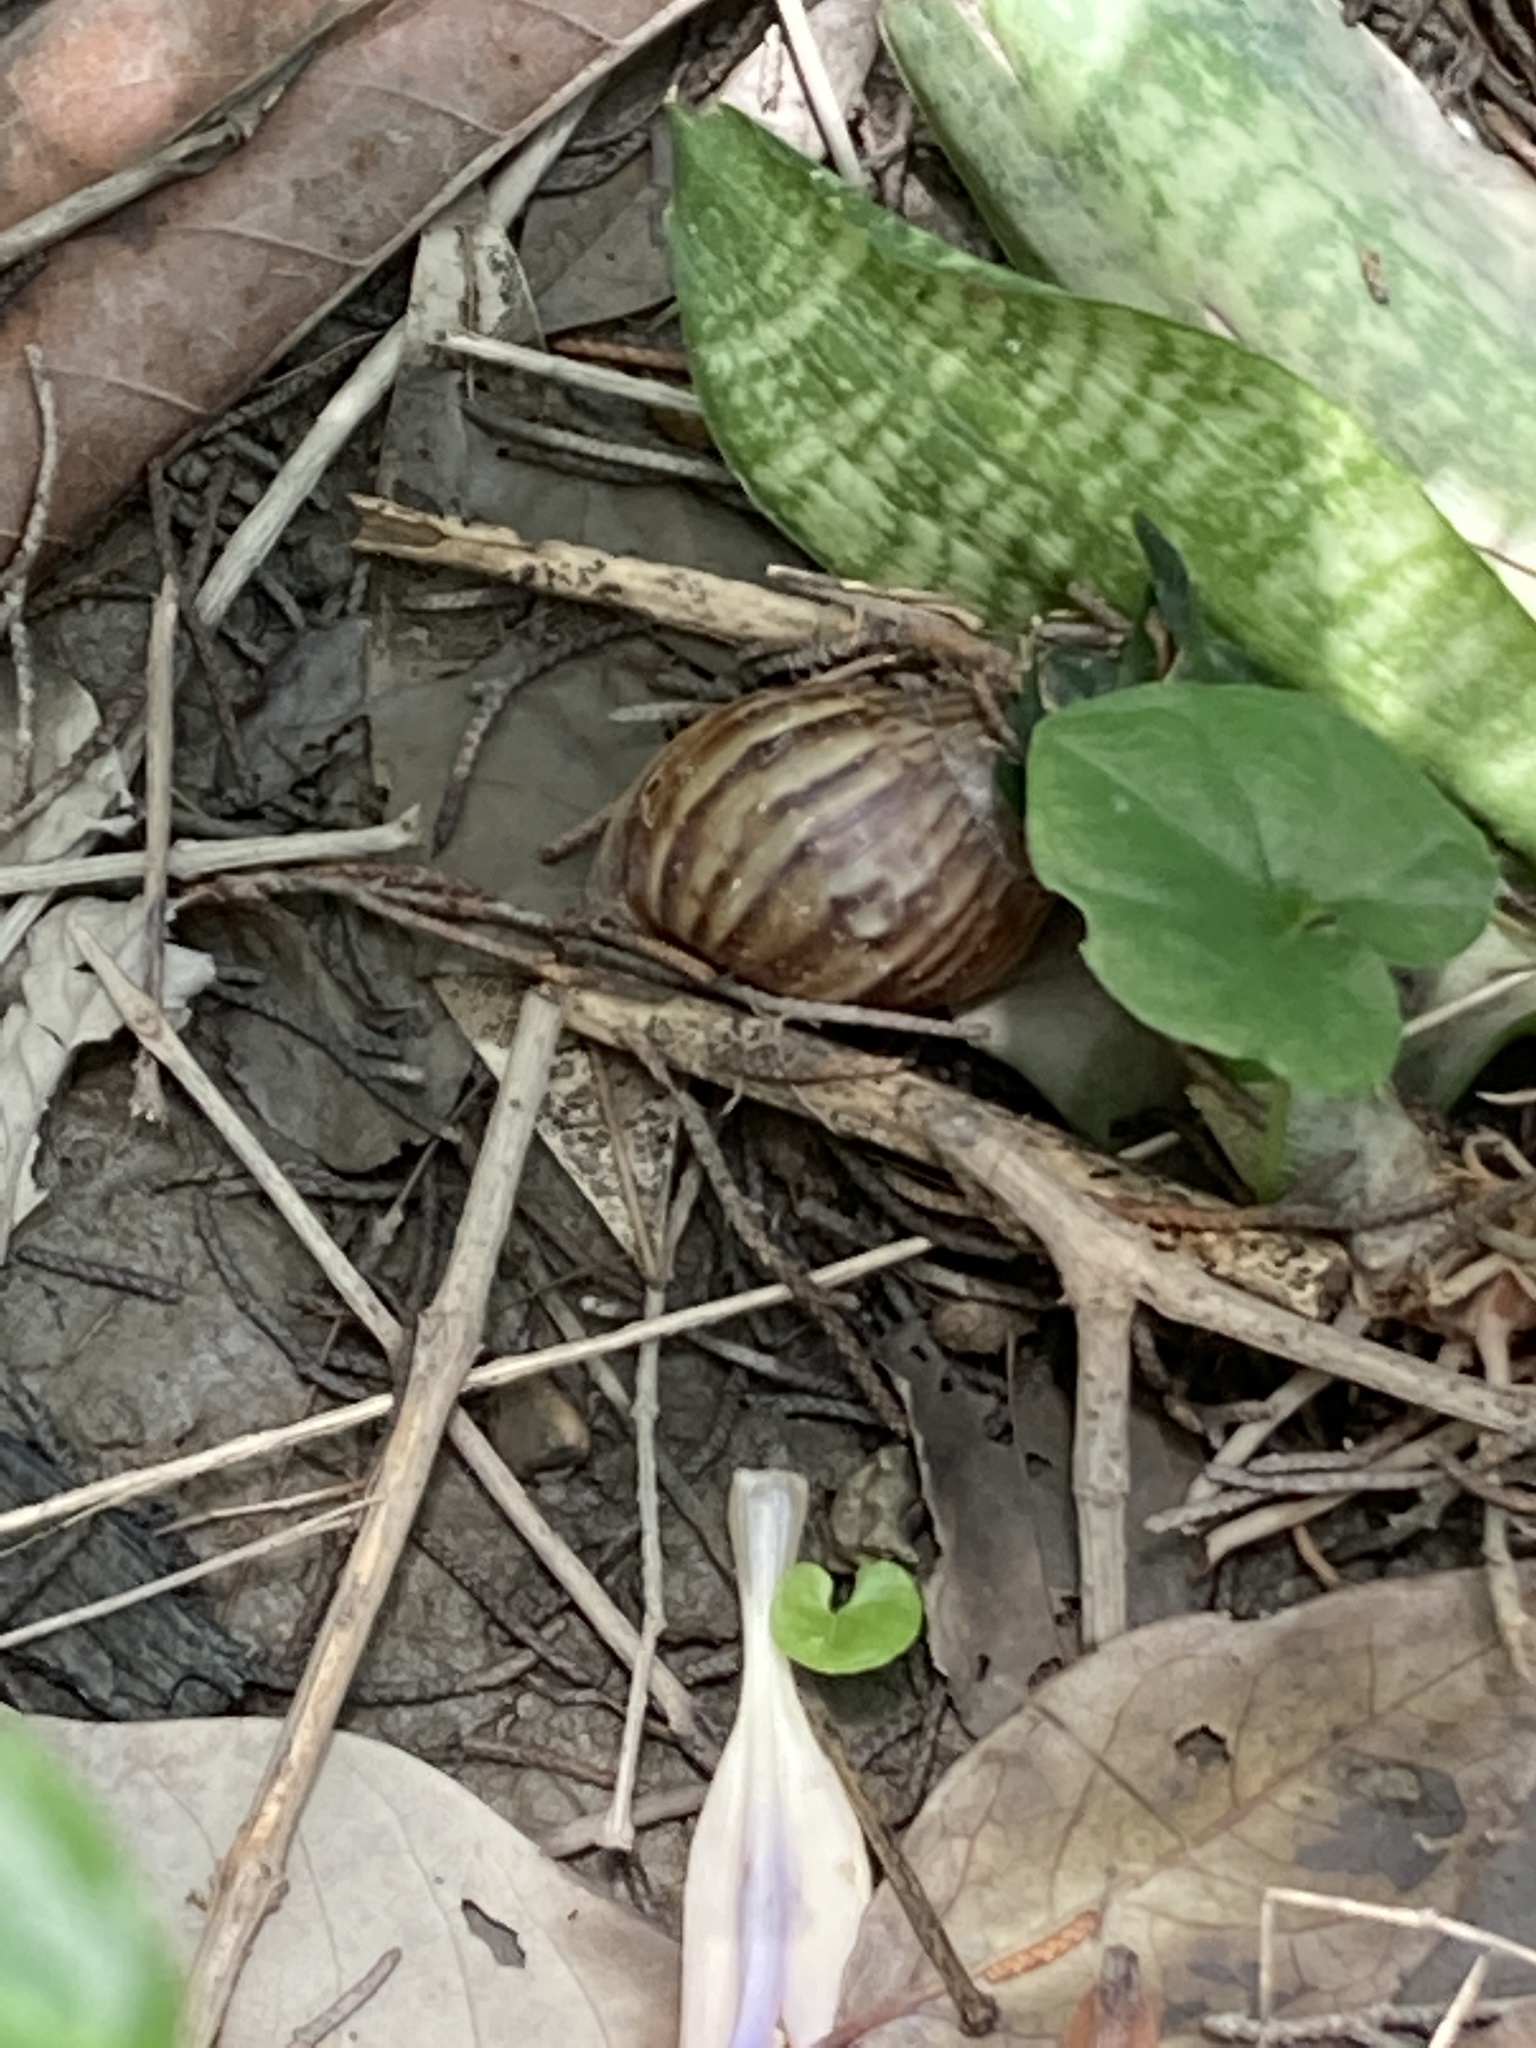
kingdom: Animalia
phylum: Mollusca
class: Gastropoda
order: Stylommatophora
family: Achatinidae
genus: Lissachatina
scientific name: Lissachatina fulica
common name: Giant african snail
